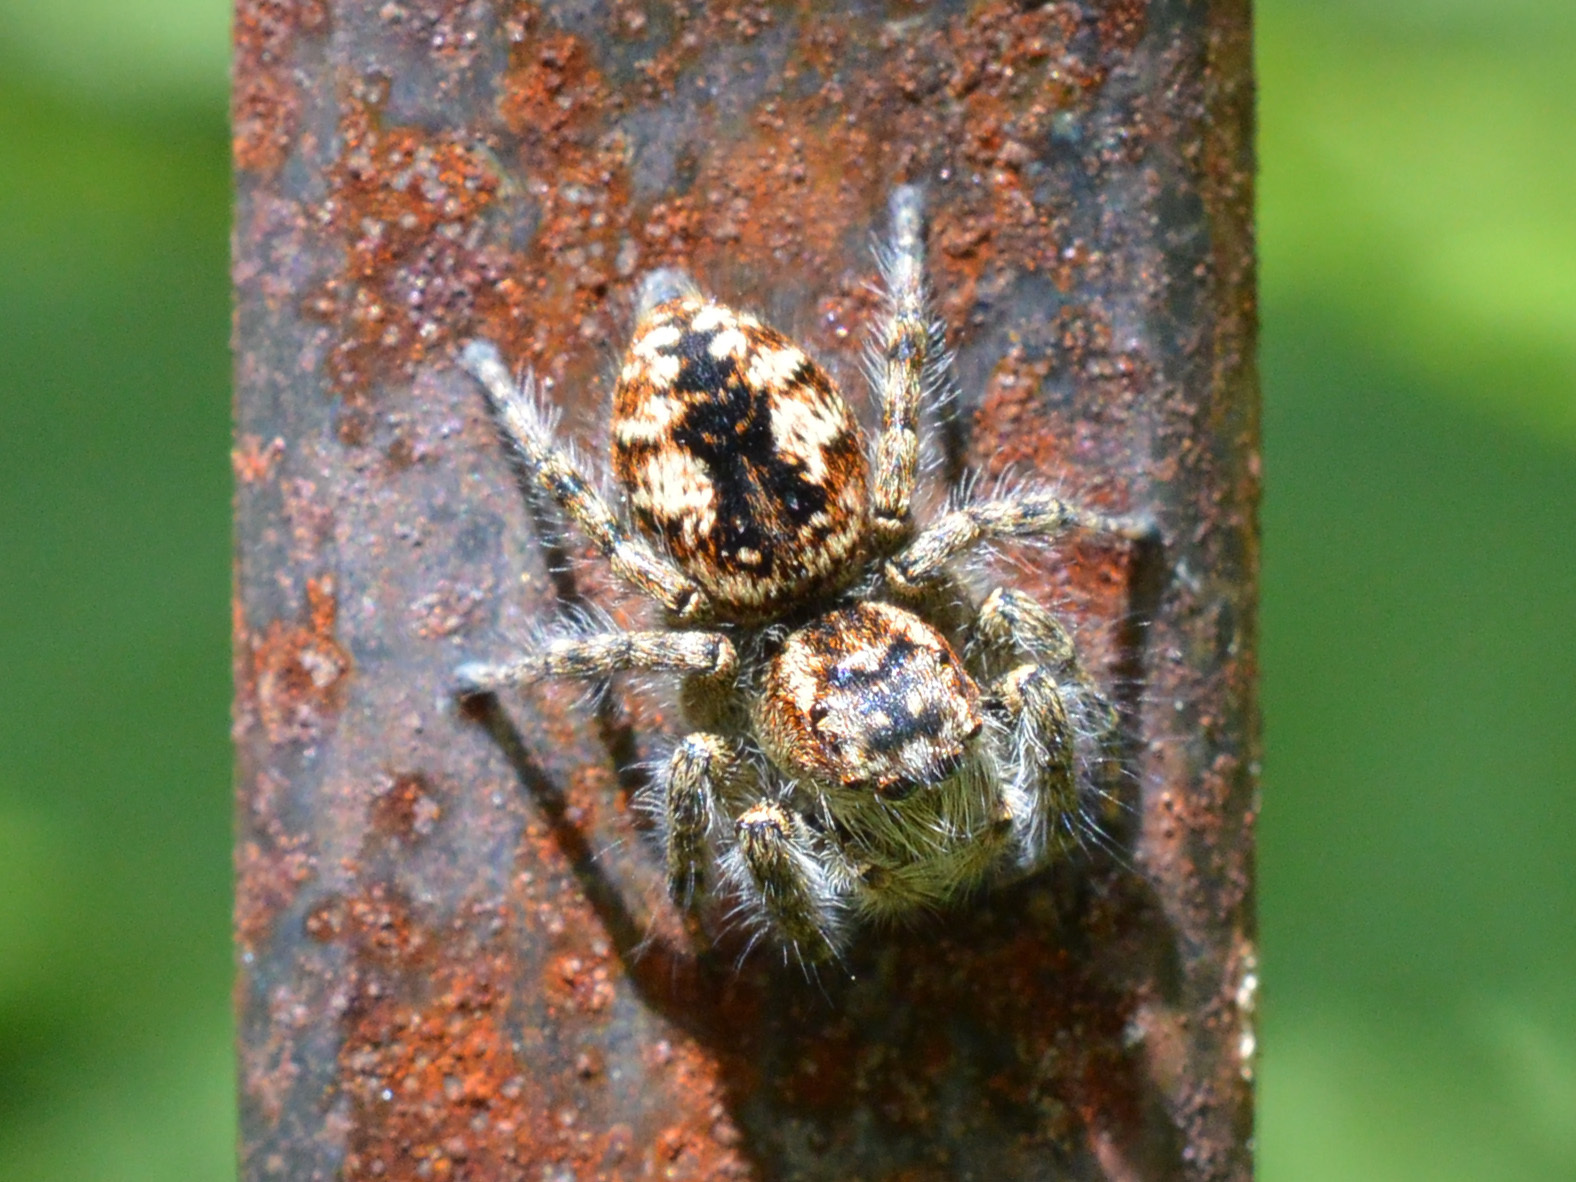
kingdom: Animalia
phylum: Arthropoda
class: Arachnida
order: Araneae
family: Salticidae
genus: Philaeus
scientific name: Philaeus chrysops
